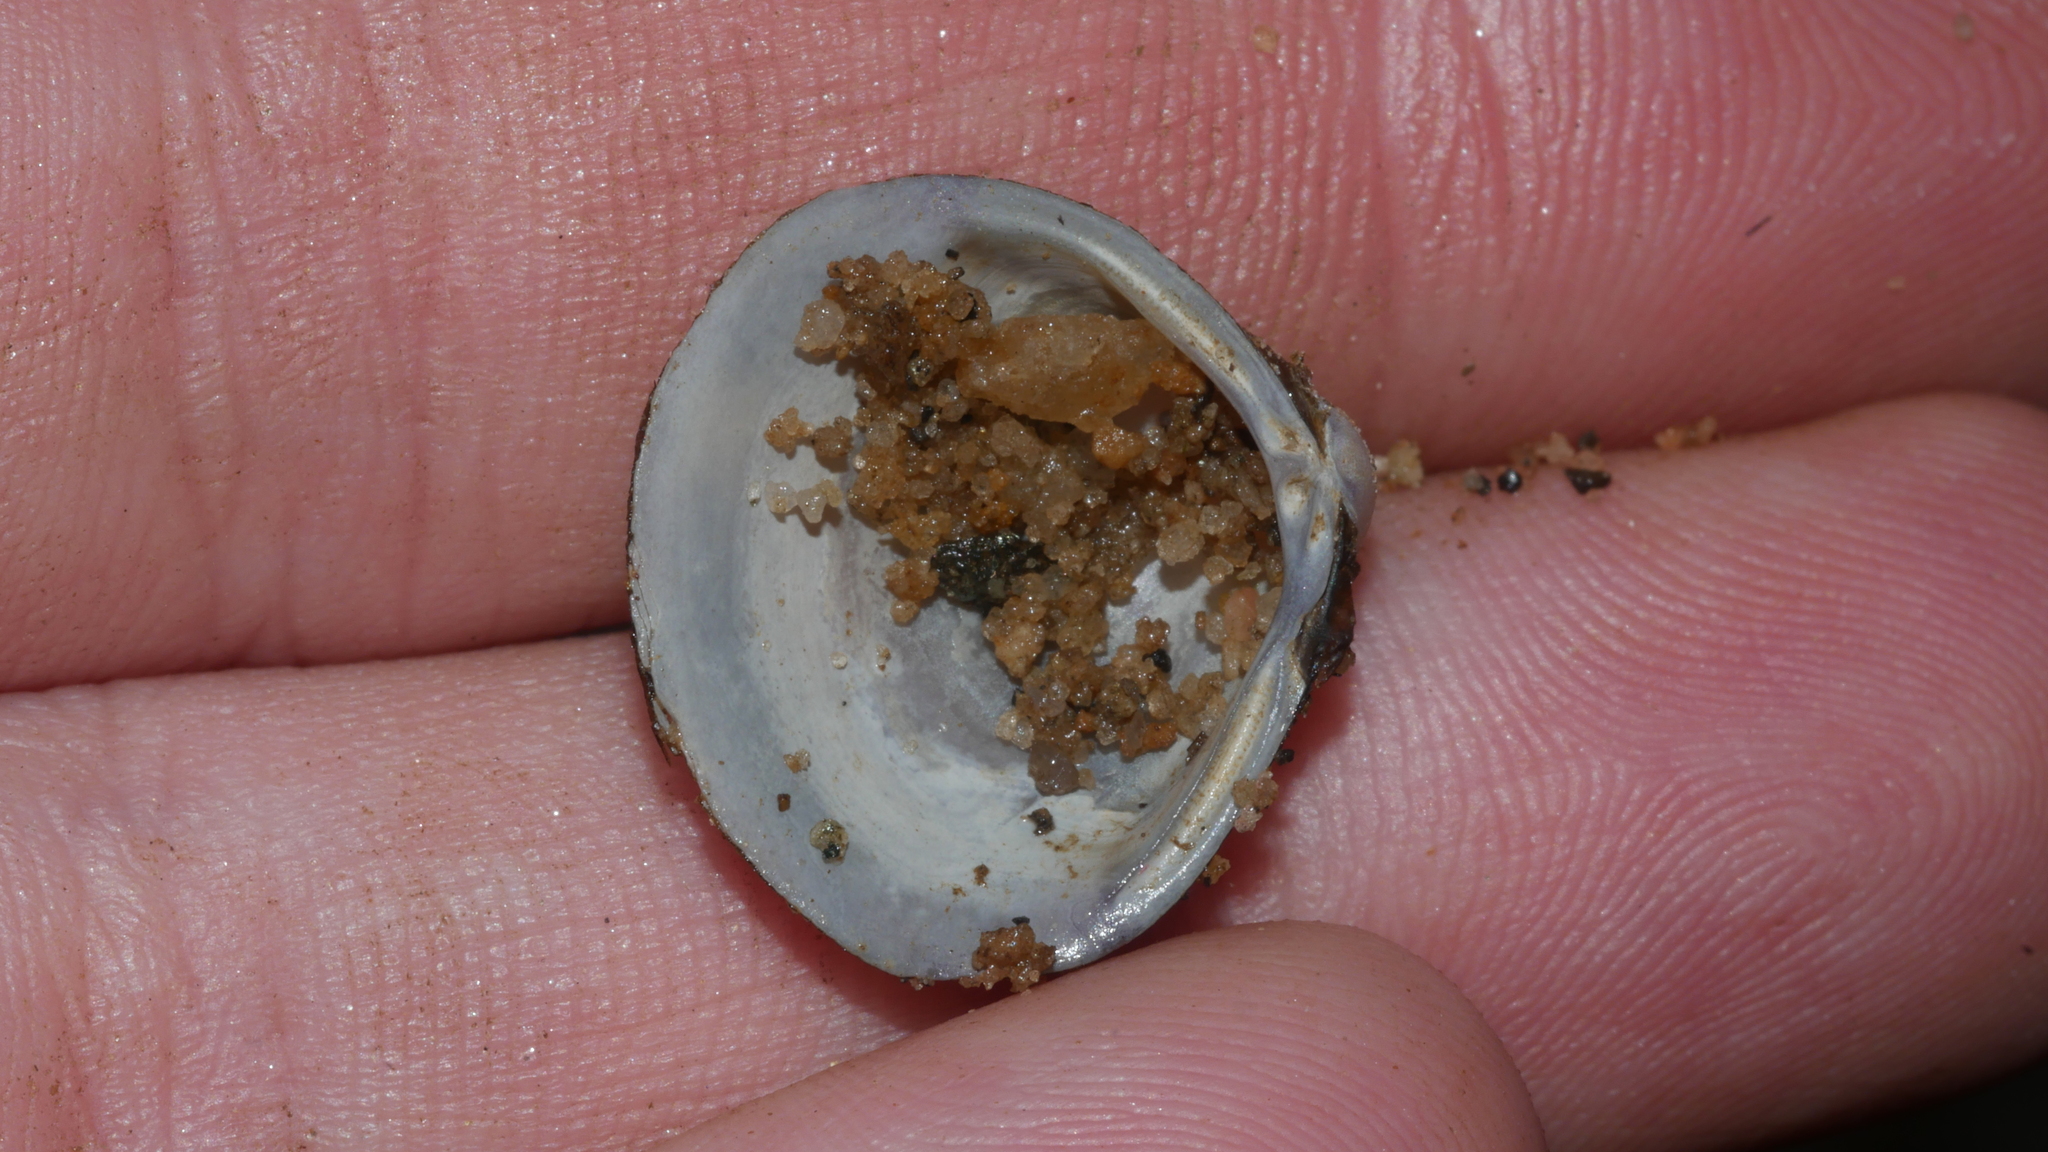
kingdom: Animalia
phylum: Mollusca
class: Bivalvia
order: Venerida
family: Cyrenidae
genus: Corbicula
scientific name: Corbicula fluminea
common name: Asian clam
